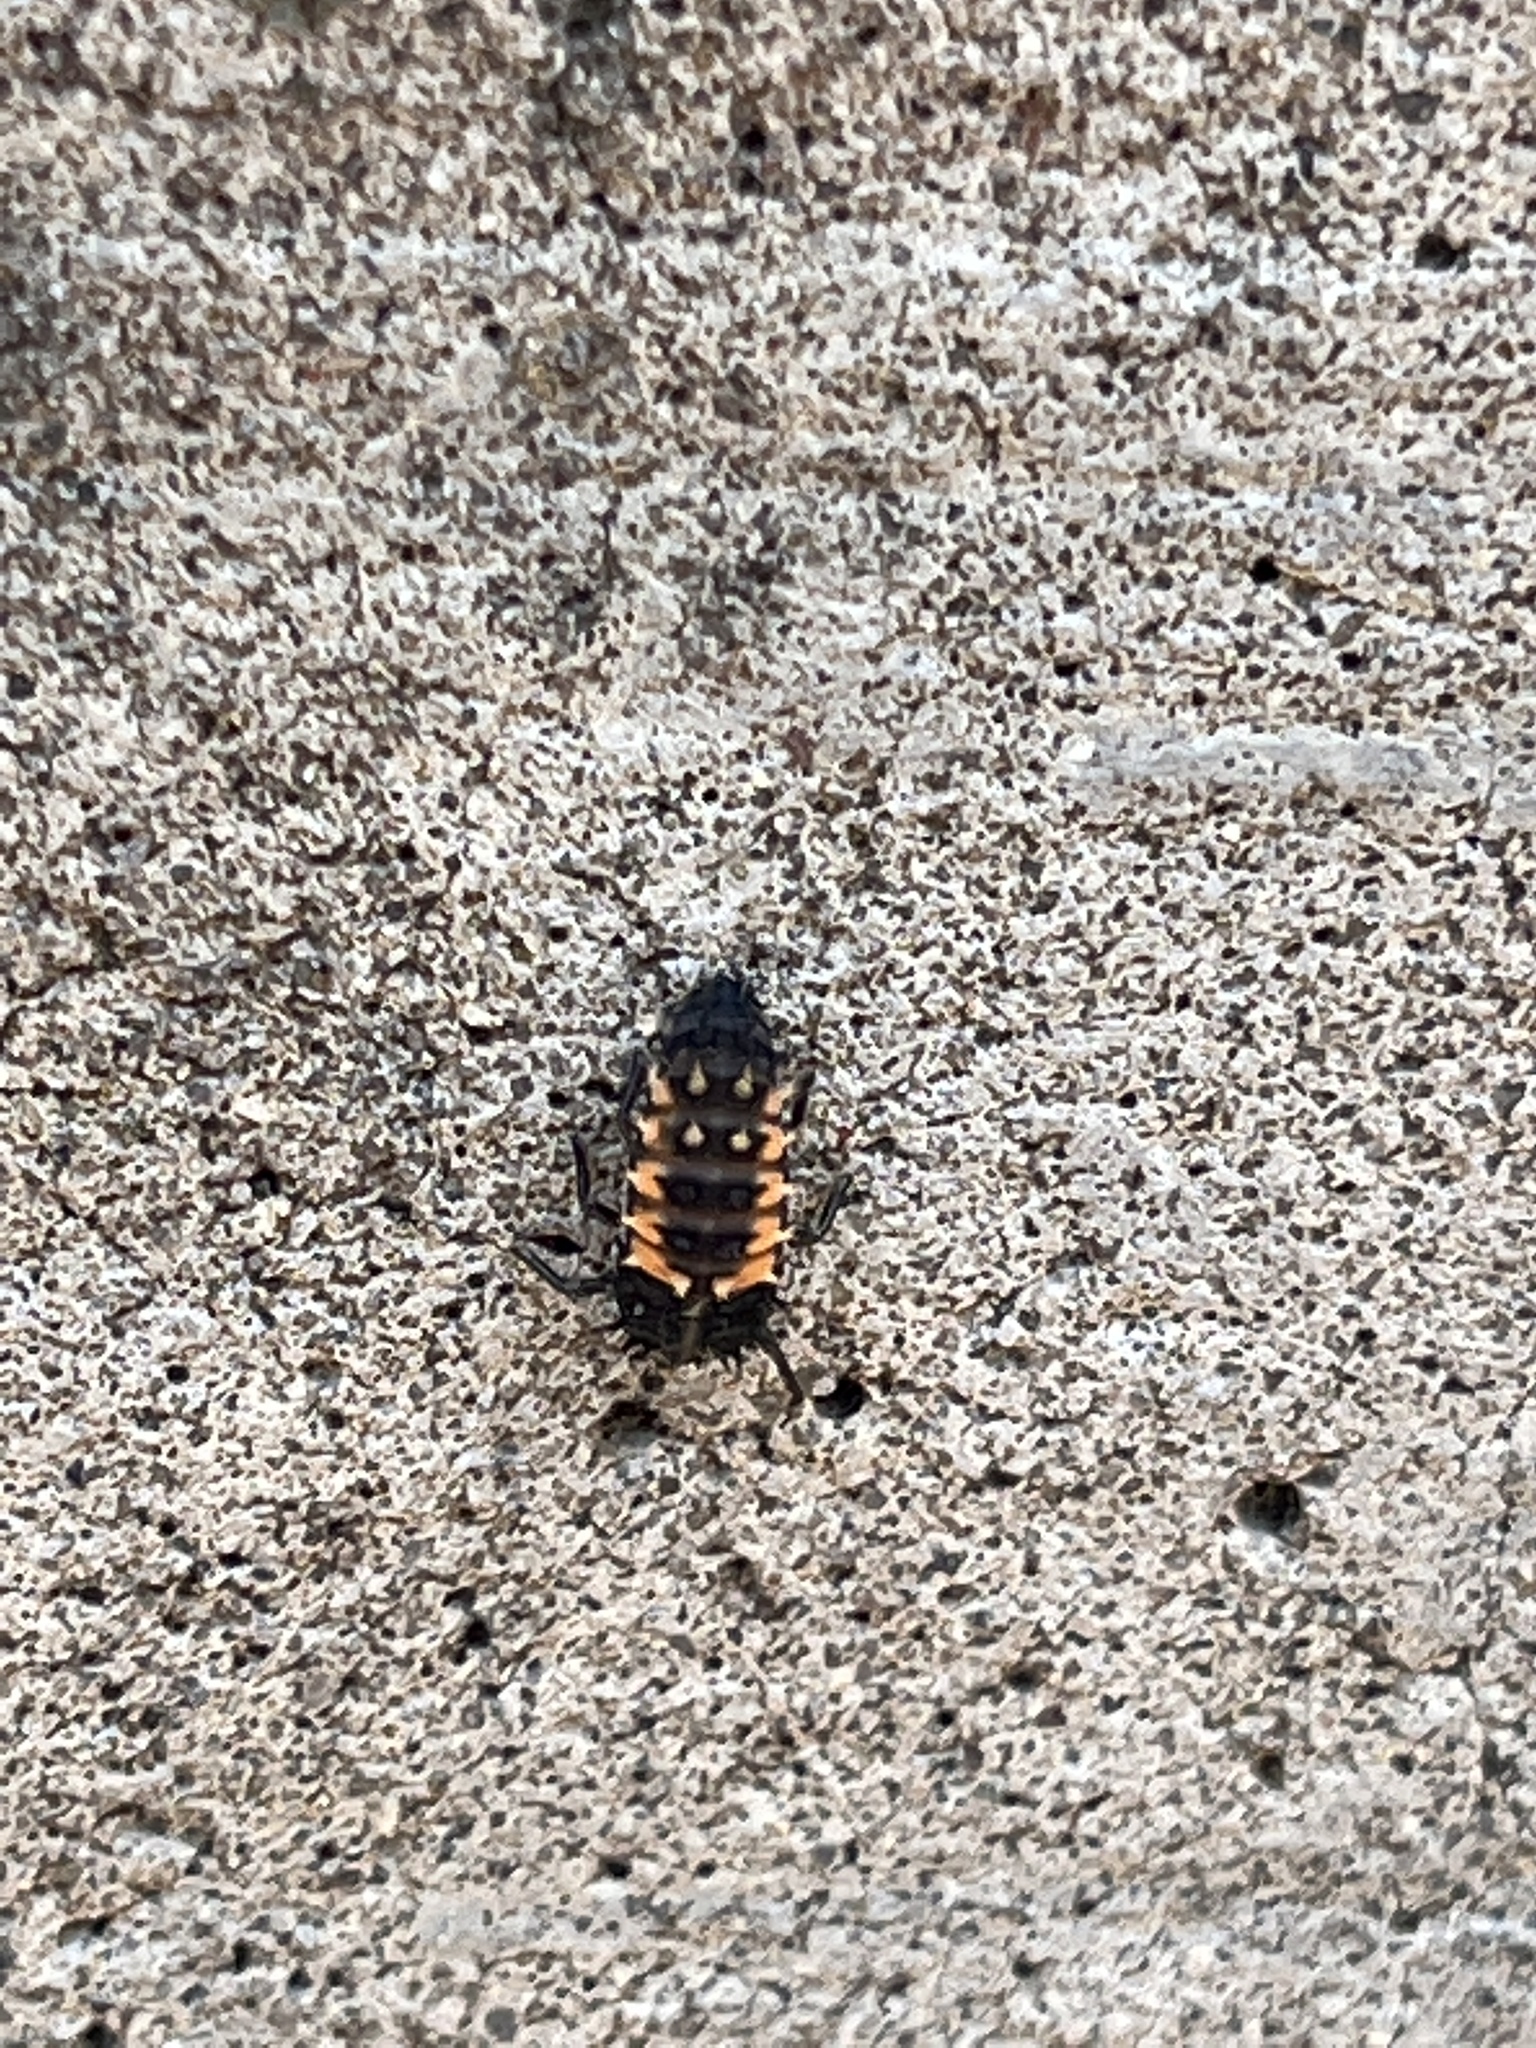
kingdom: Animalia
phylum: Arthropoda
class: Insecta
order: Coleoptera
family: Coccinellidae
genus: Harmonia
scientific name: Harmonia axyridis
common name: Harlequin ladybird
